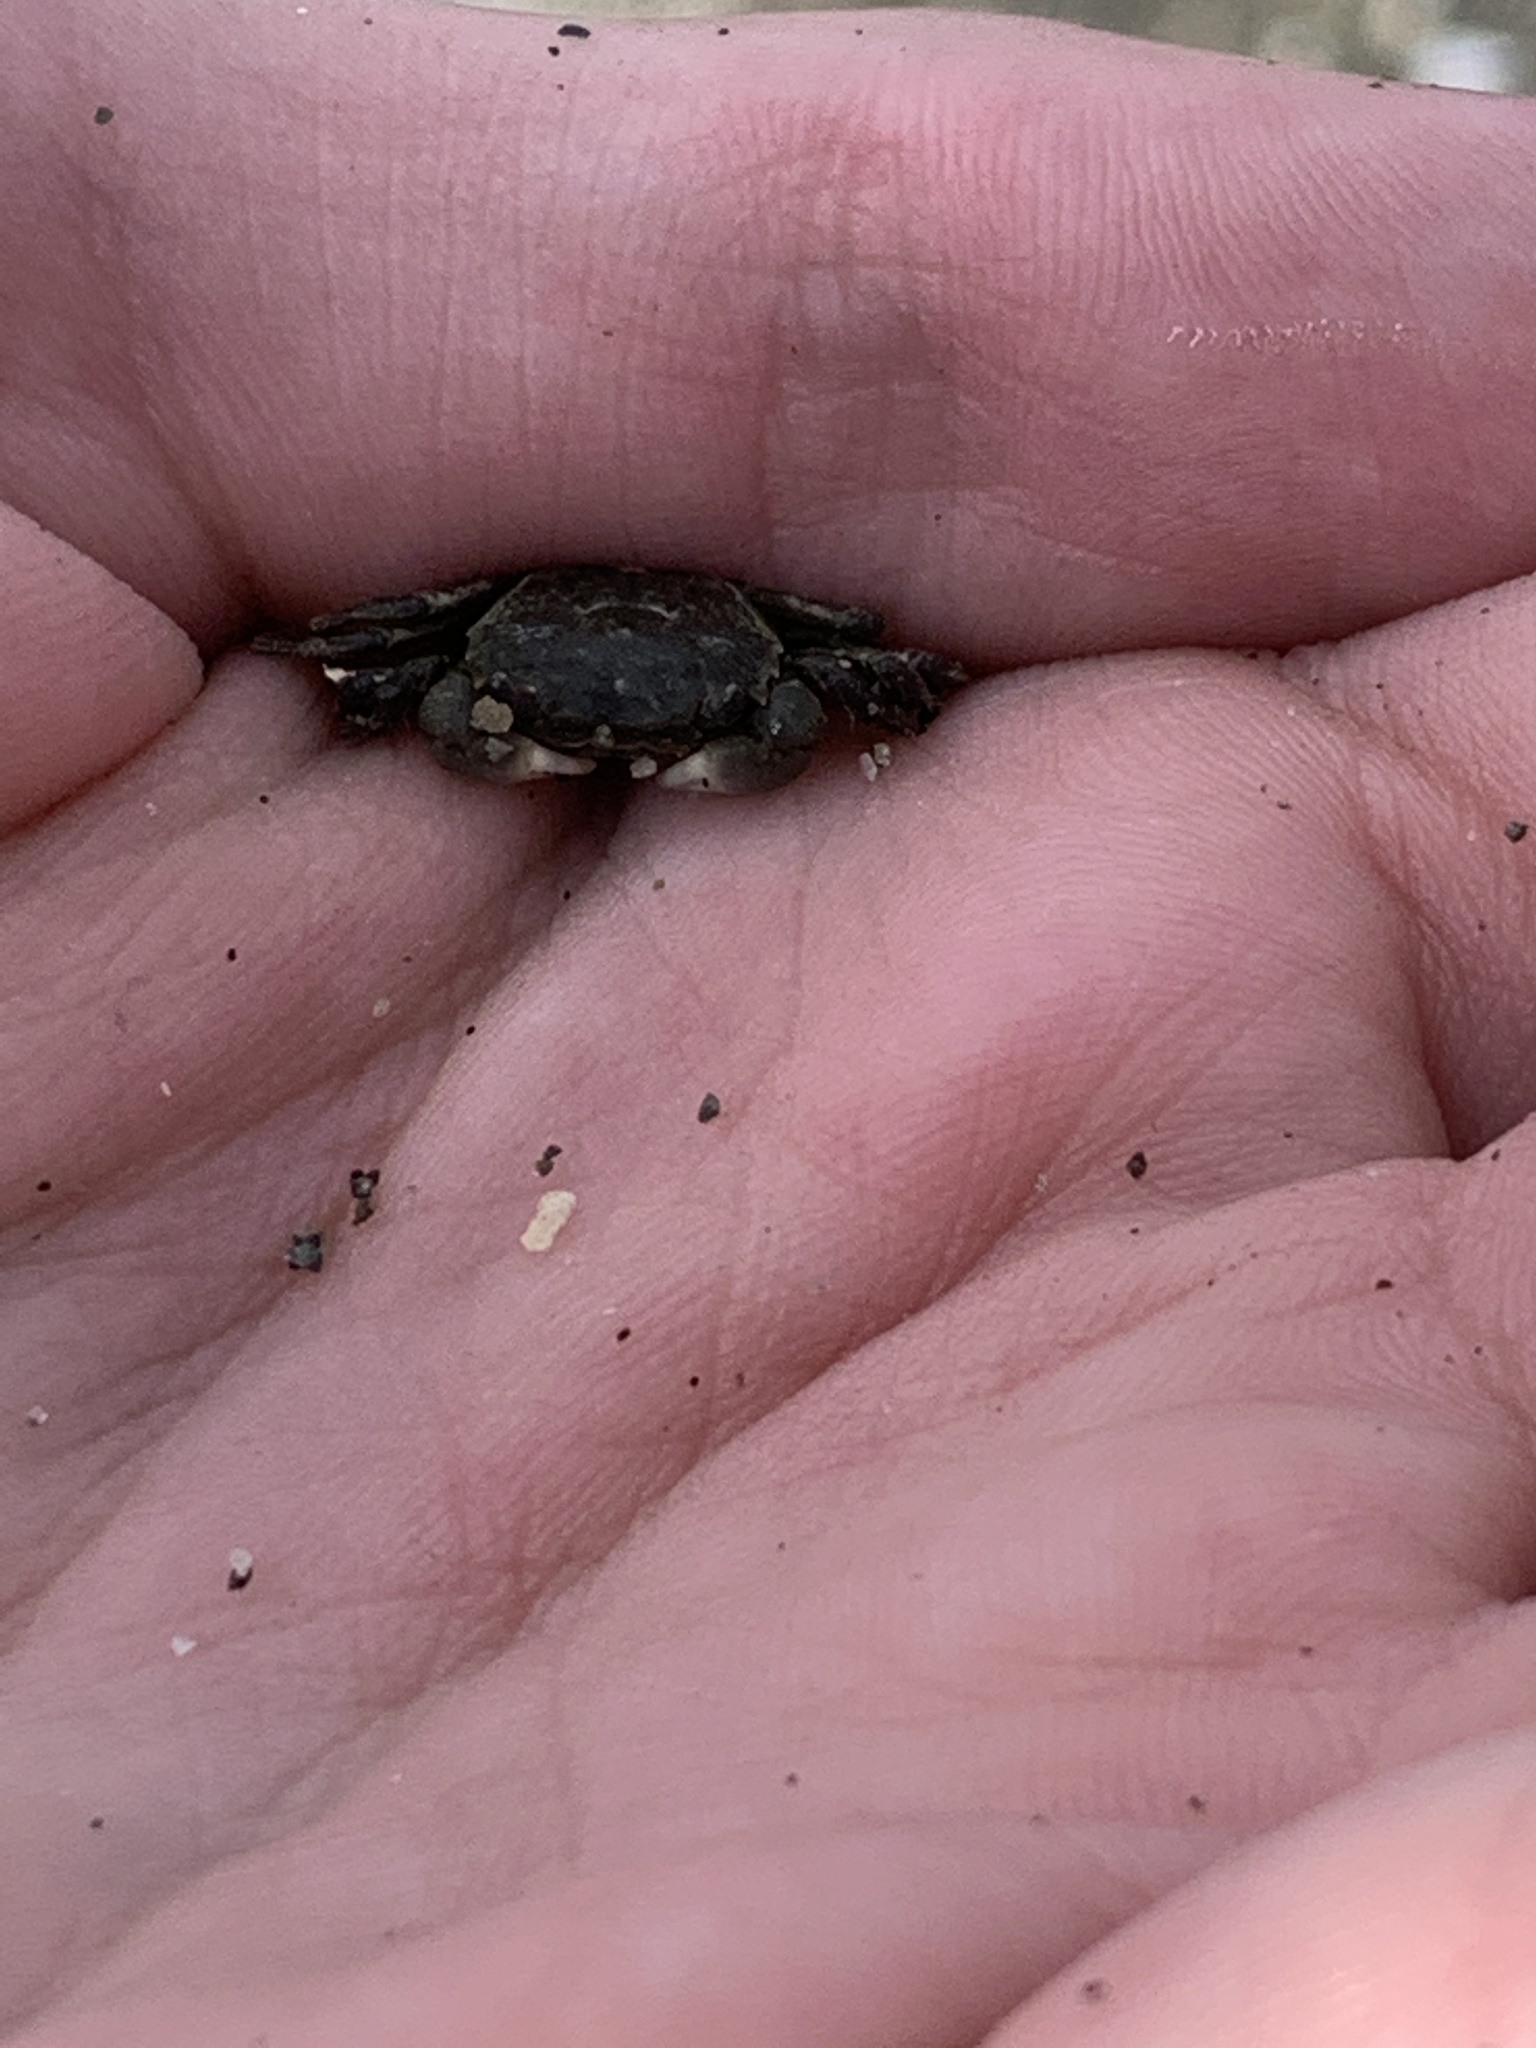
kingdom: Animalia
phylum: Arthropoda
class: Malacostraca
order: Decapoda
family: Varunidae
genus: Hemigrapsus
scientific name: Hemigrapsus oregonensis
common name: Yellow shore crab
